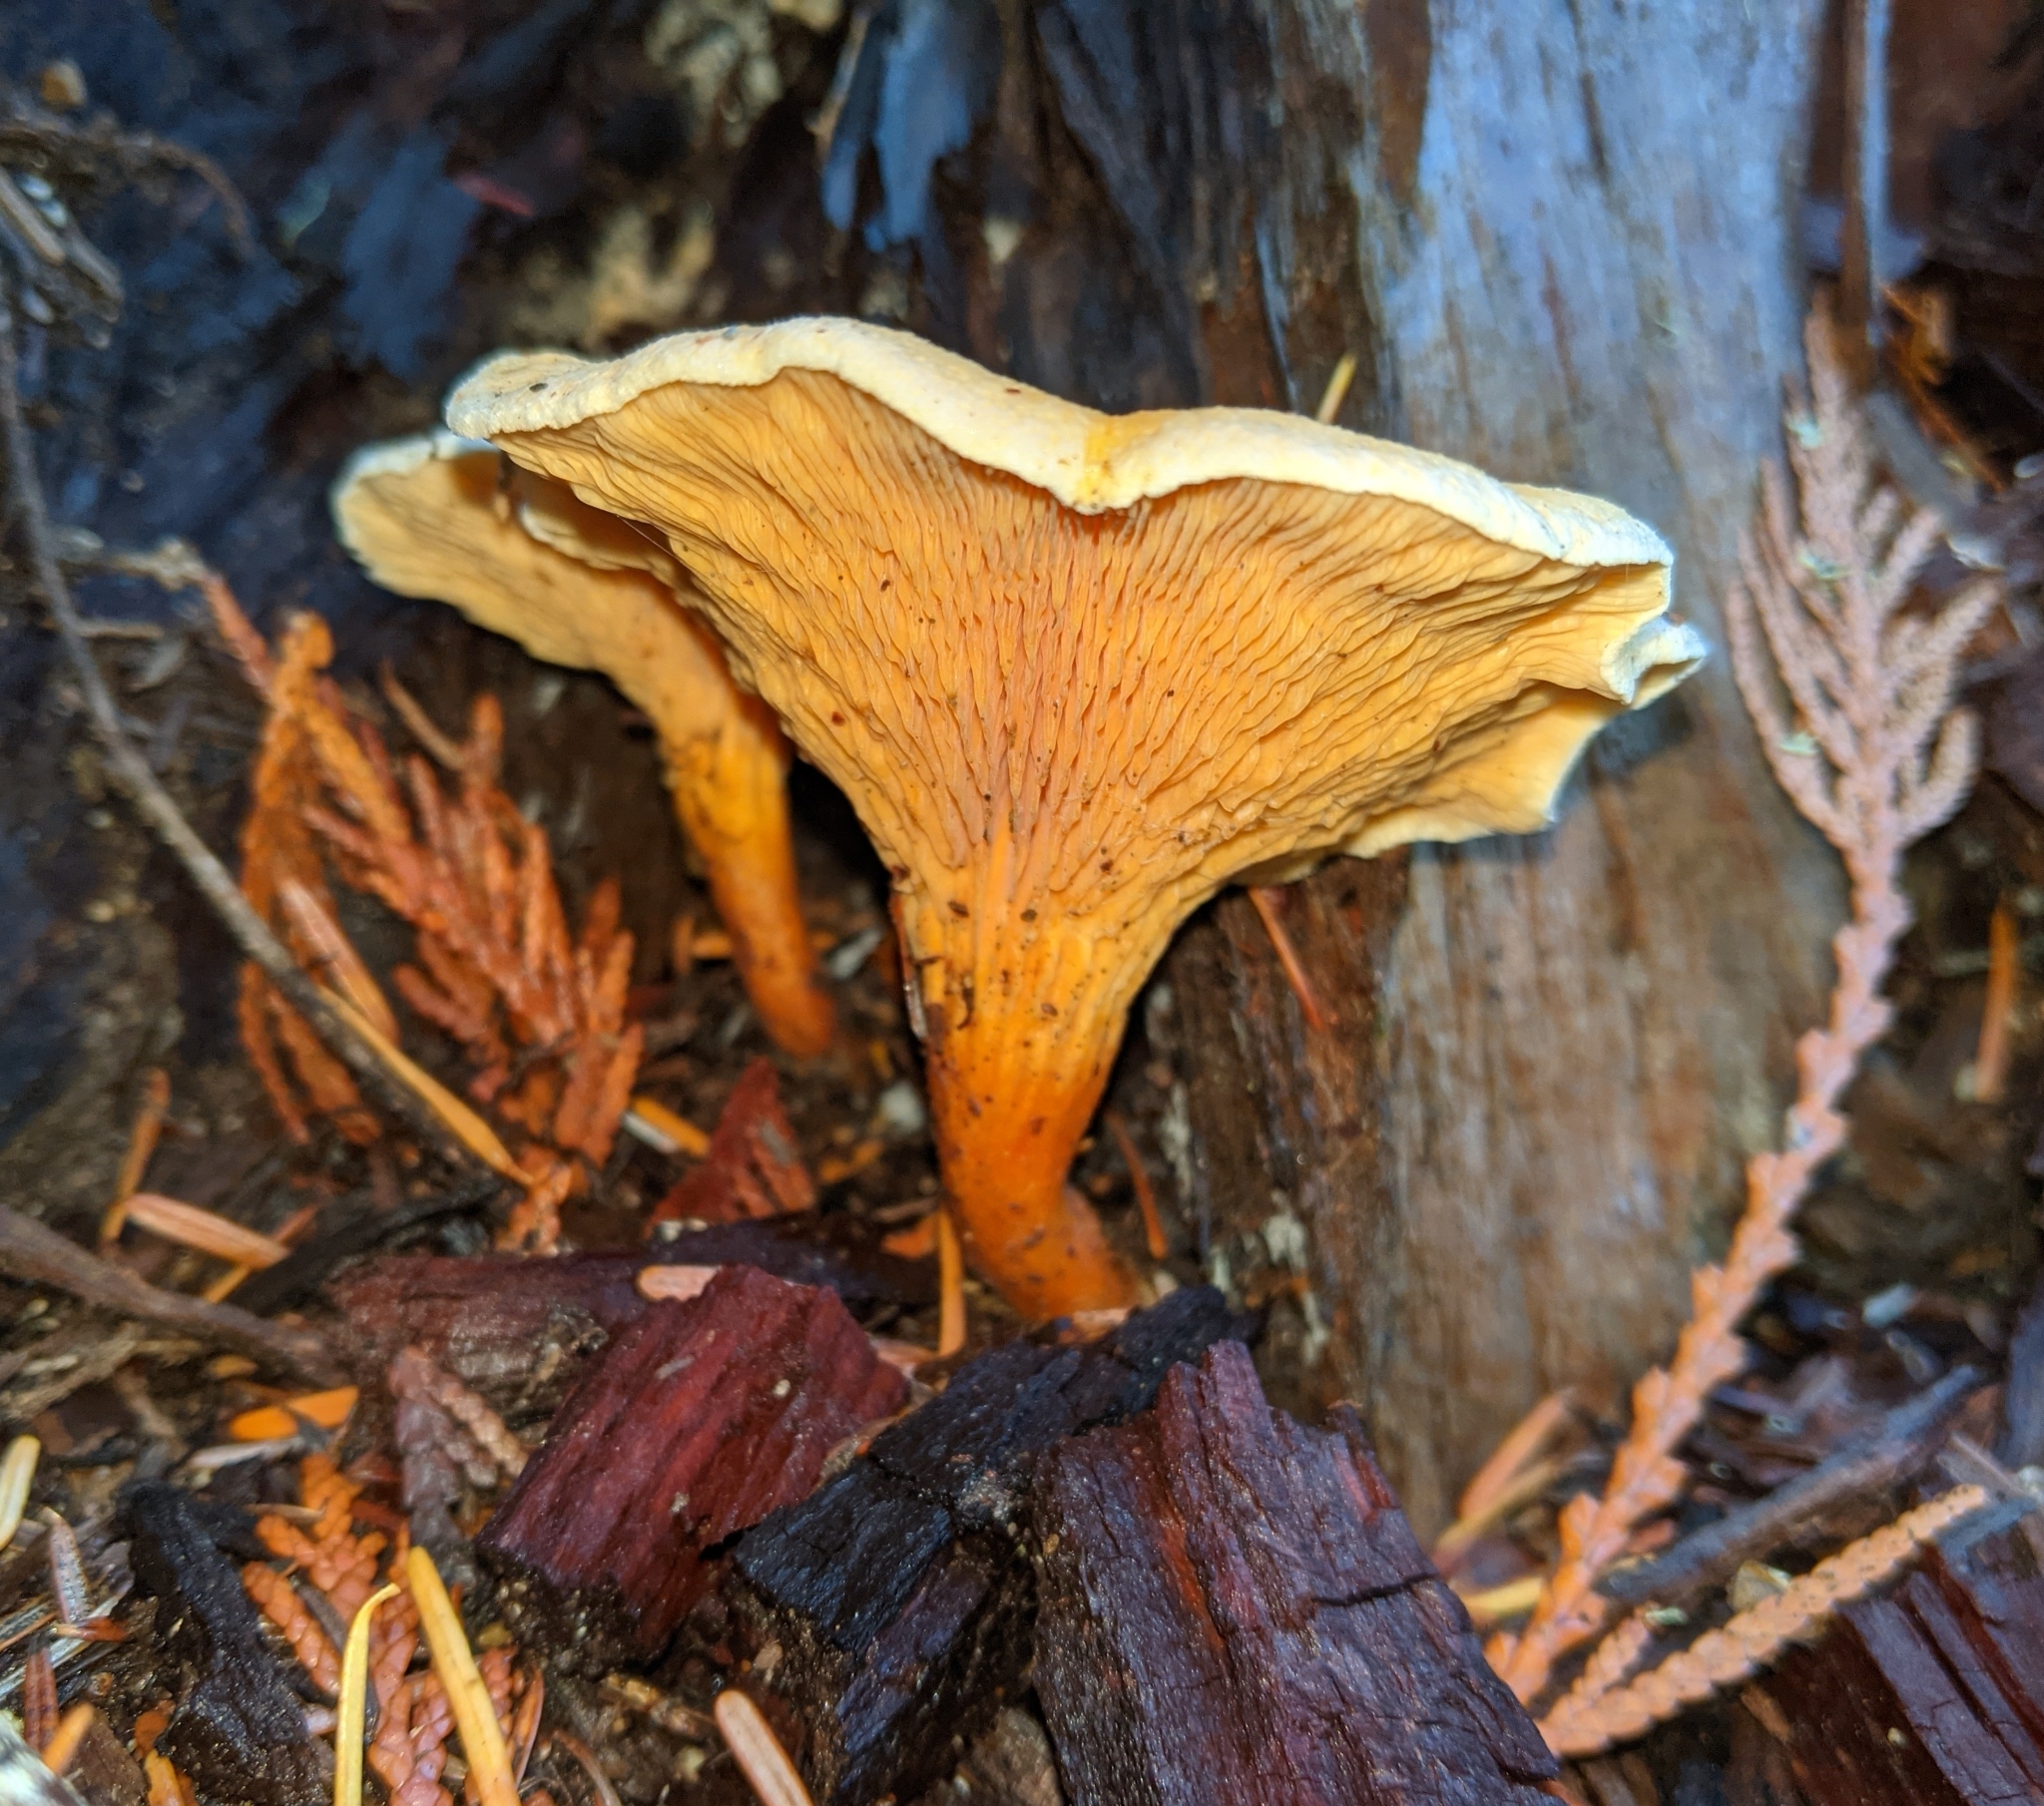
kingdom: Fungi
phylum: Basidiomycota
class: Agaricomycetes
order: Boletales
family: Hygrophoropsidaceae
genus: Hygrophoropsis
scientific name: Hygrophoropsis aurantiaca
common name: False chanterelle
